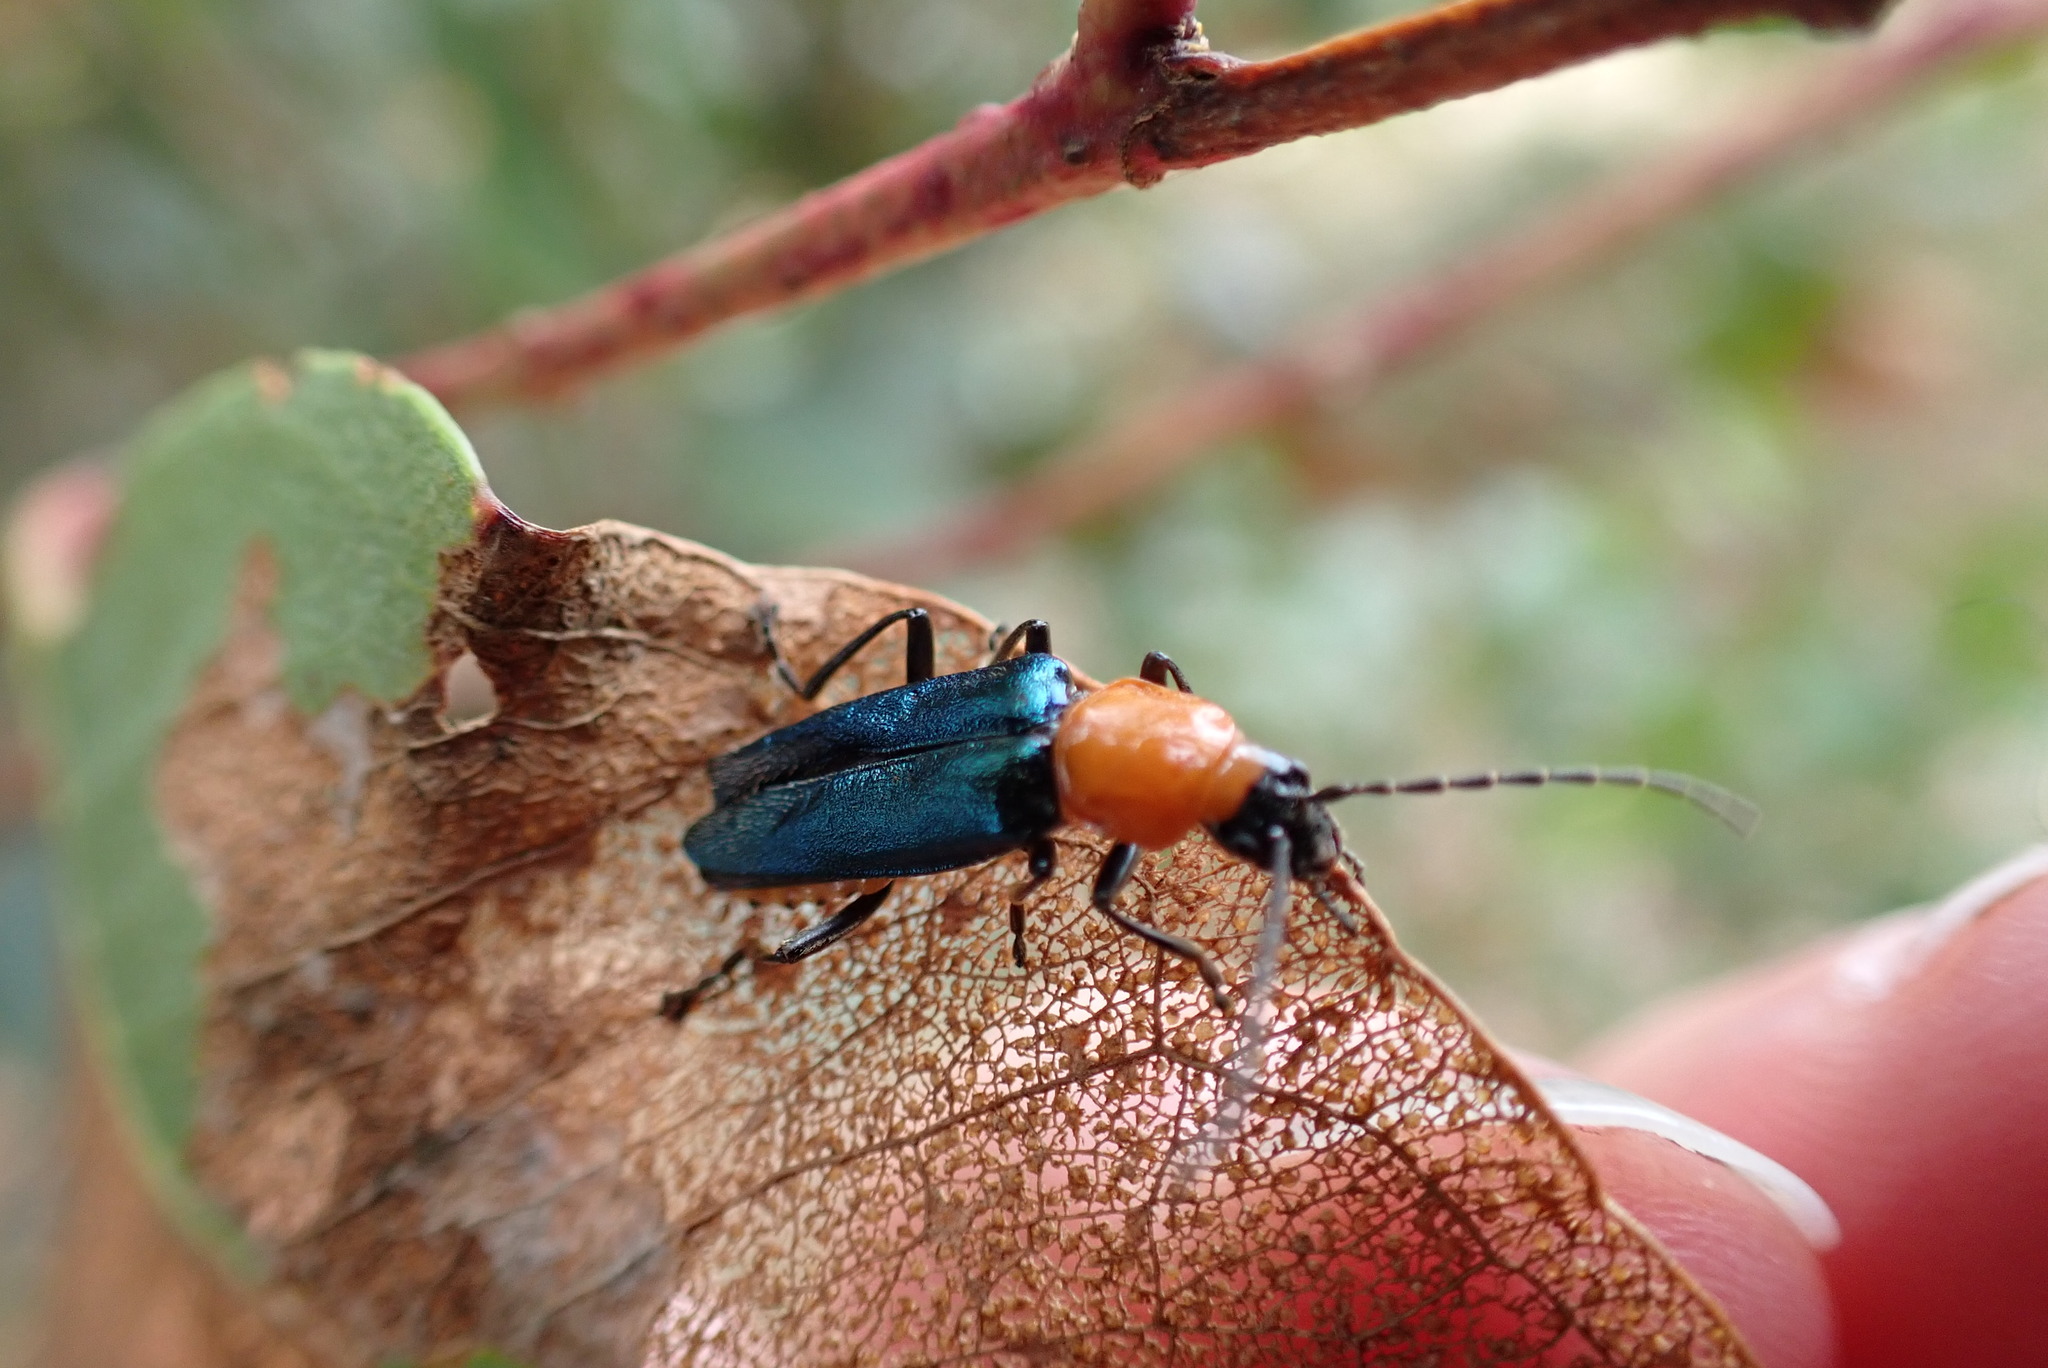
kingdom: Animalia
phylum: Arthropoda
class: Insecta
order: Coleoptera
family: Cantharidae
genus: Chauliognathus
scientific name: Chauliognathus
